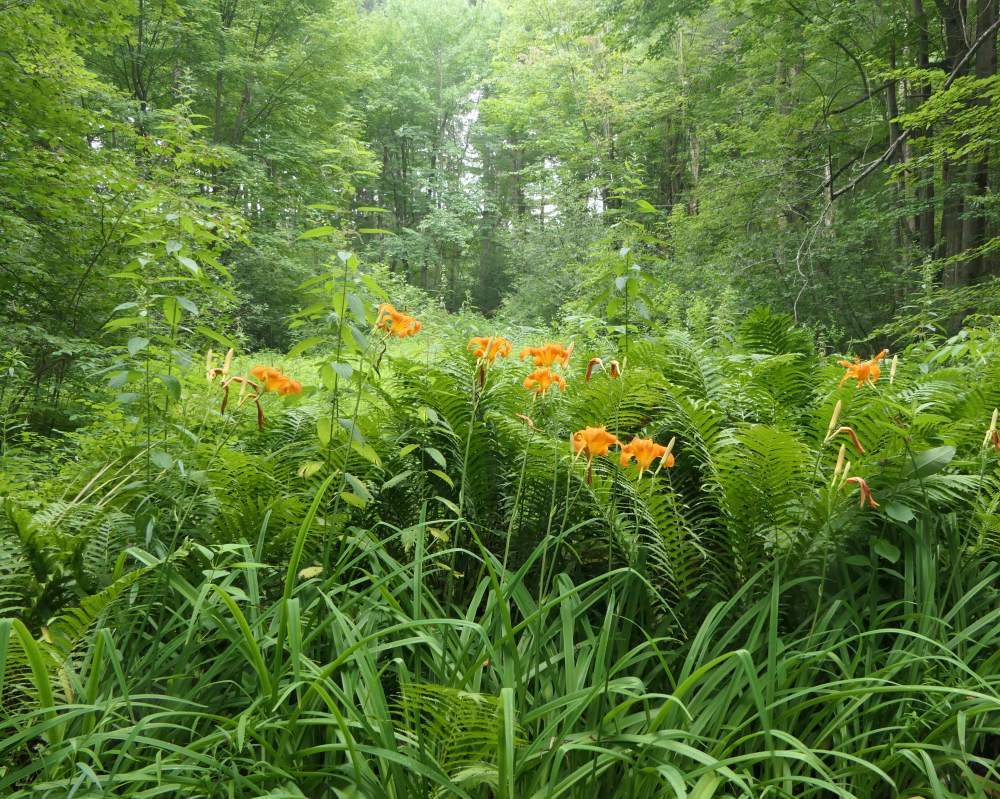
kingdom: Plantae
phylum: Tracheophyta
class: Liliopsida
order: Asparagales
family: Asphodelaceae
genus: Hemerocallis
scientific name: Hemerocallis fulva
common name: Orange day-lily
